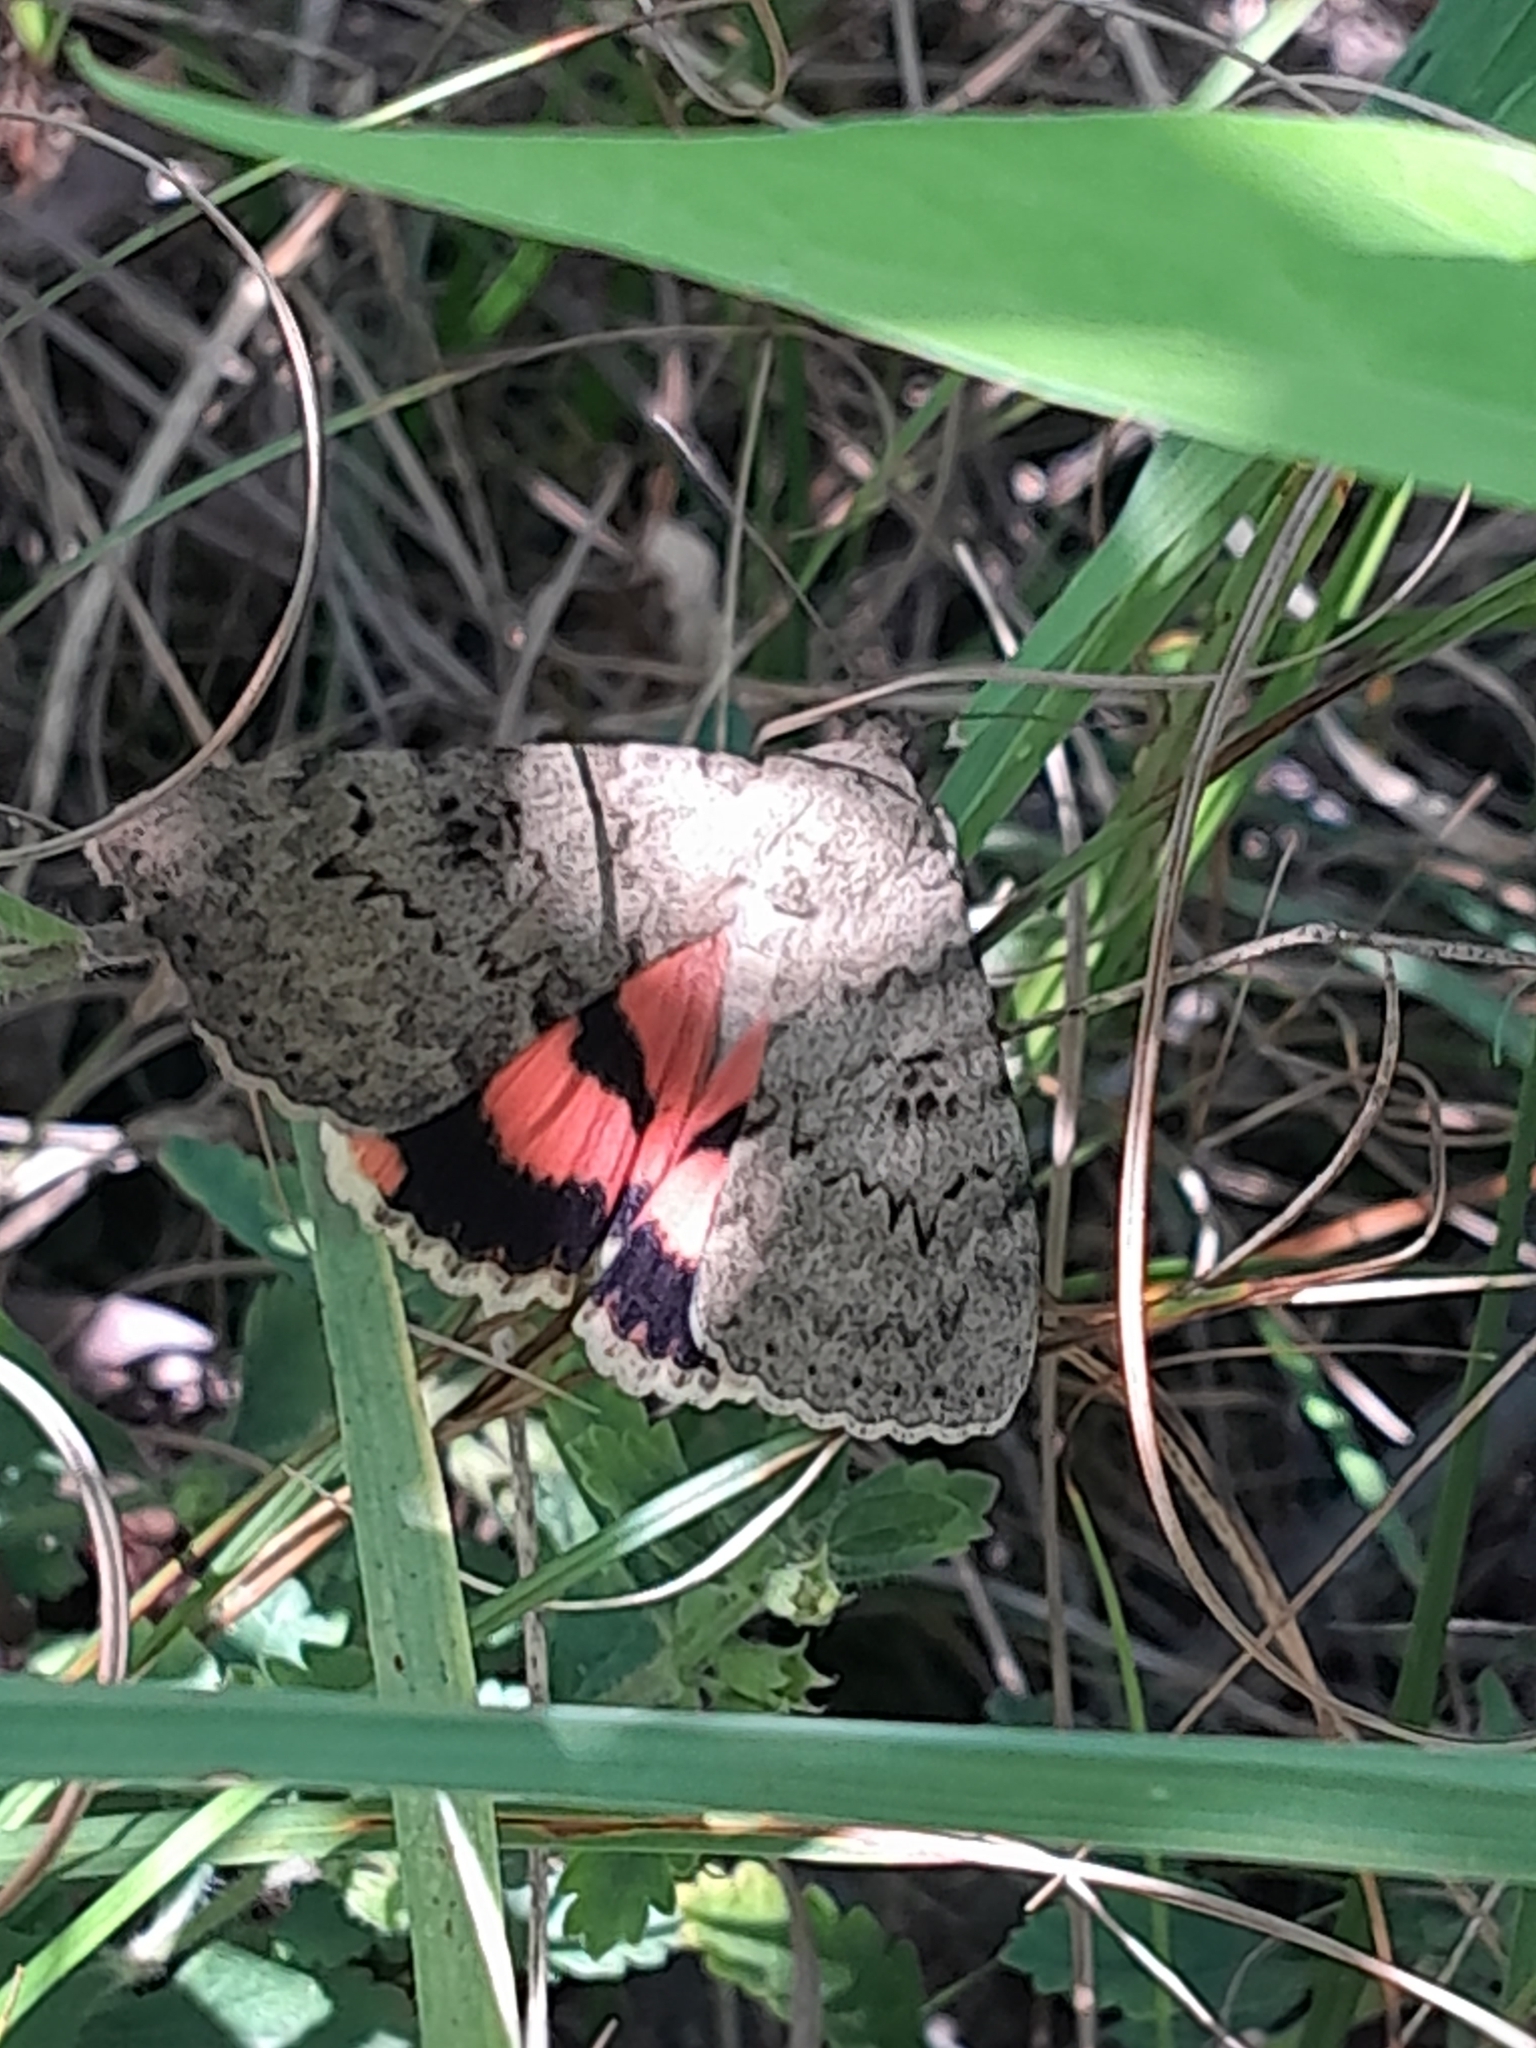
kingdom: Animalia
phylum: Arthropoda
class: Insecta
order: Lepidoptera
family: Erebidae
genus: Catocala
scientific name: Catocala puerpera
